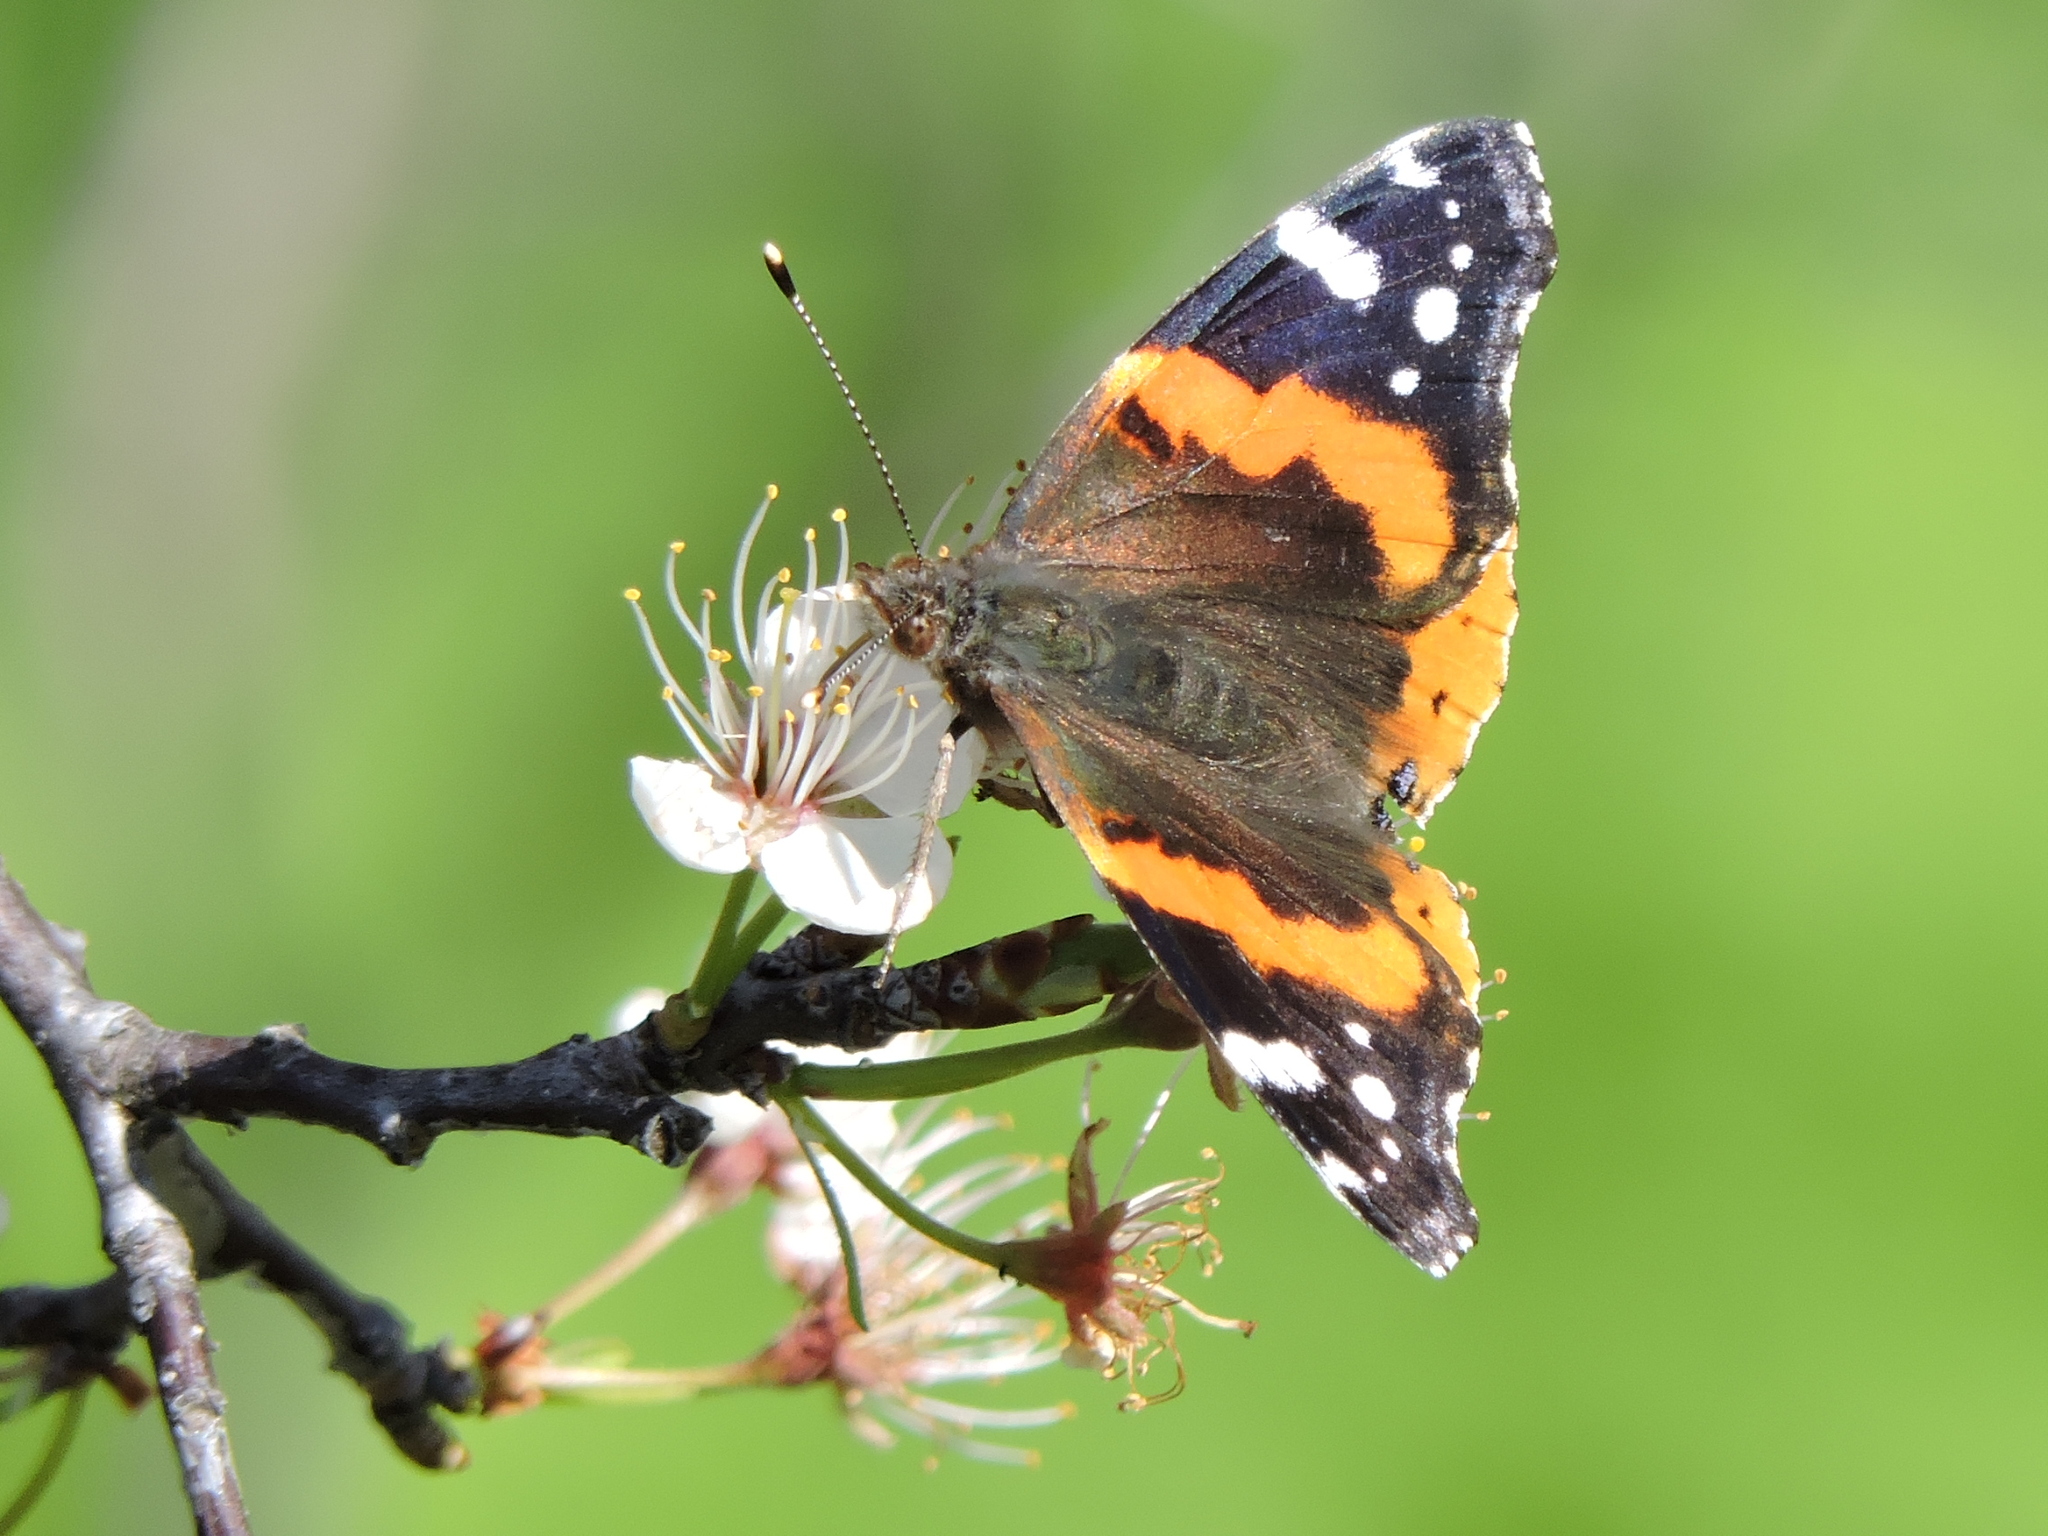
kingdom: Animalia
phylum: Arthropoda
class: Insecta
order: Lepidoptera
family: Nymphalidae
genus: Vanessa
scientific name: Vanessa atalanta
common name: Red admiral
